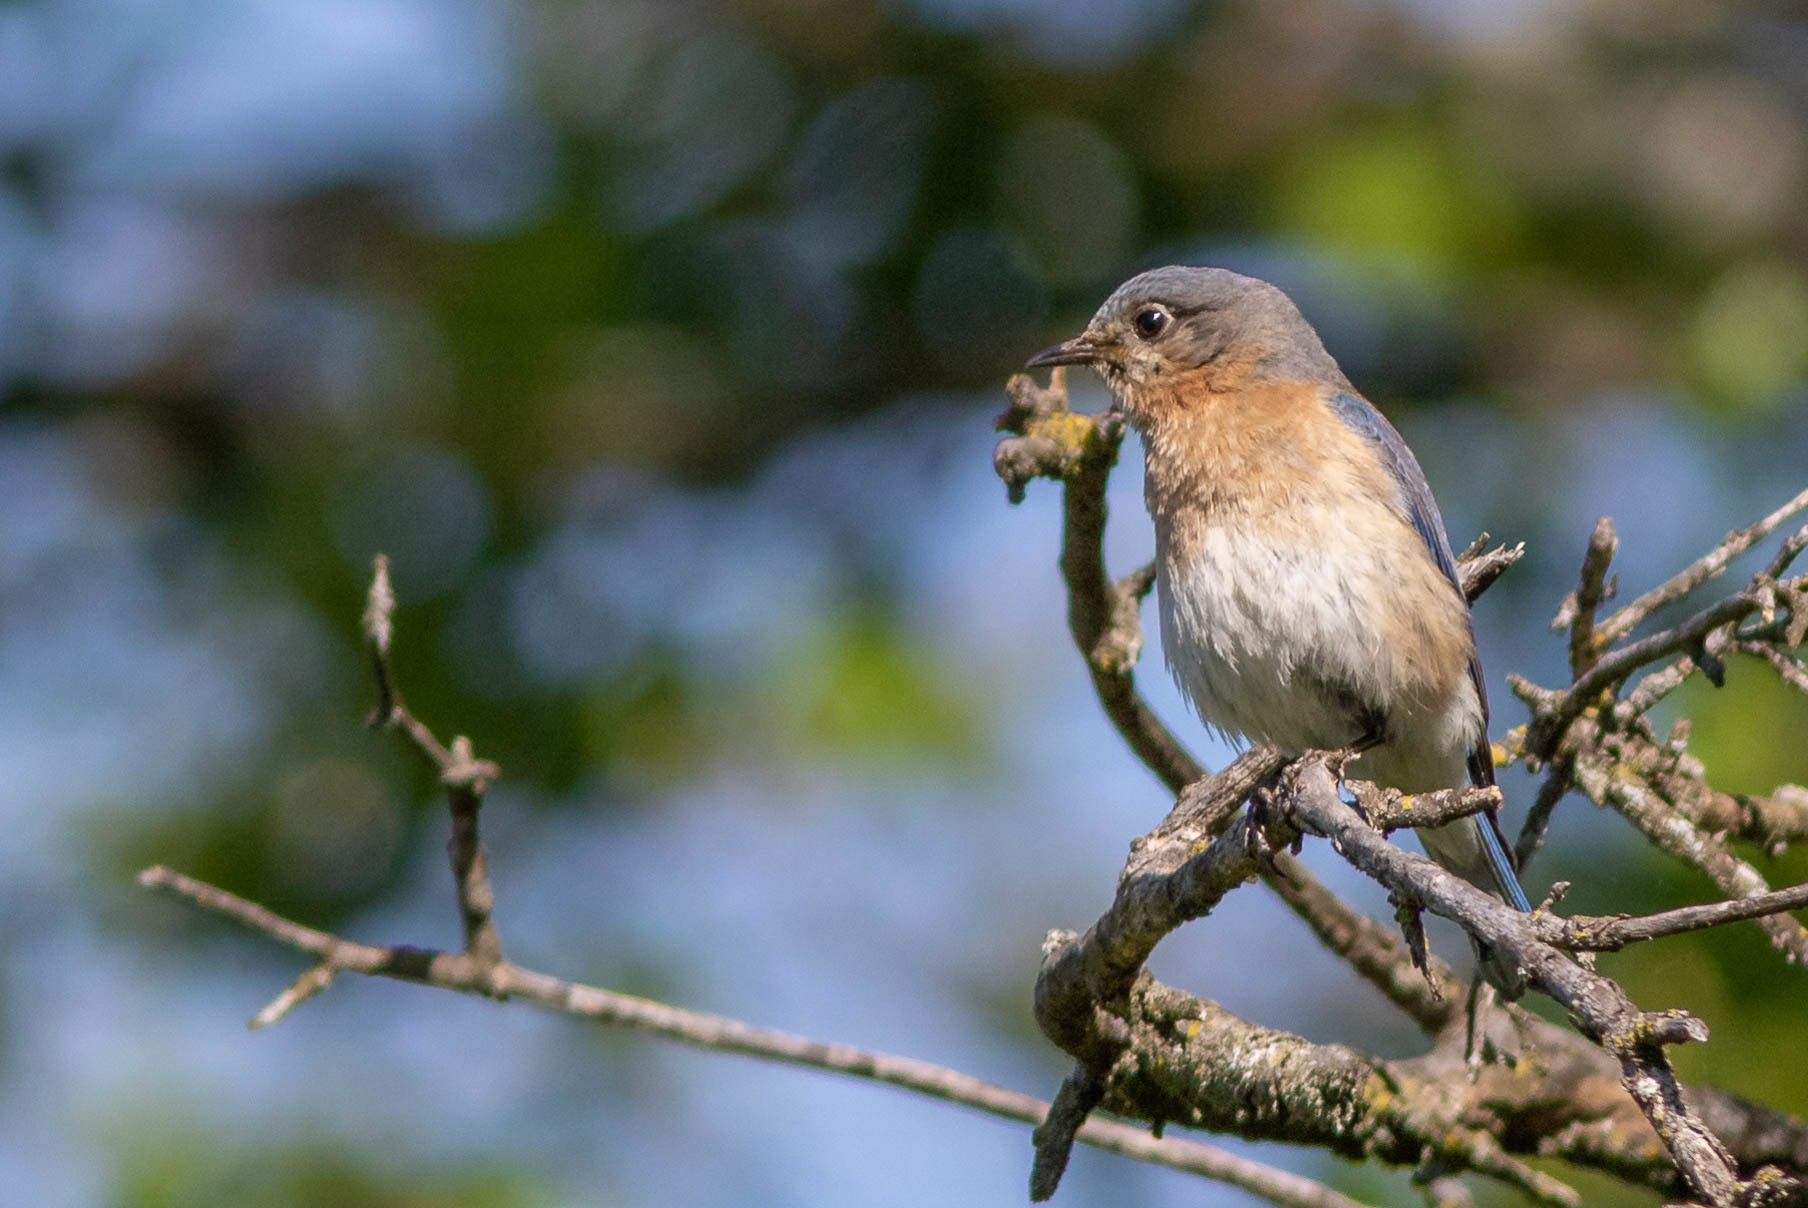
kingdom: Animalia
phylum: Chordata
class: Aves
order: Passeriformes
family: Turdidae
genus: Sialia
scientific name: Sialia sialis
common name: Eastern bluebird
